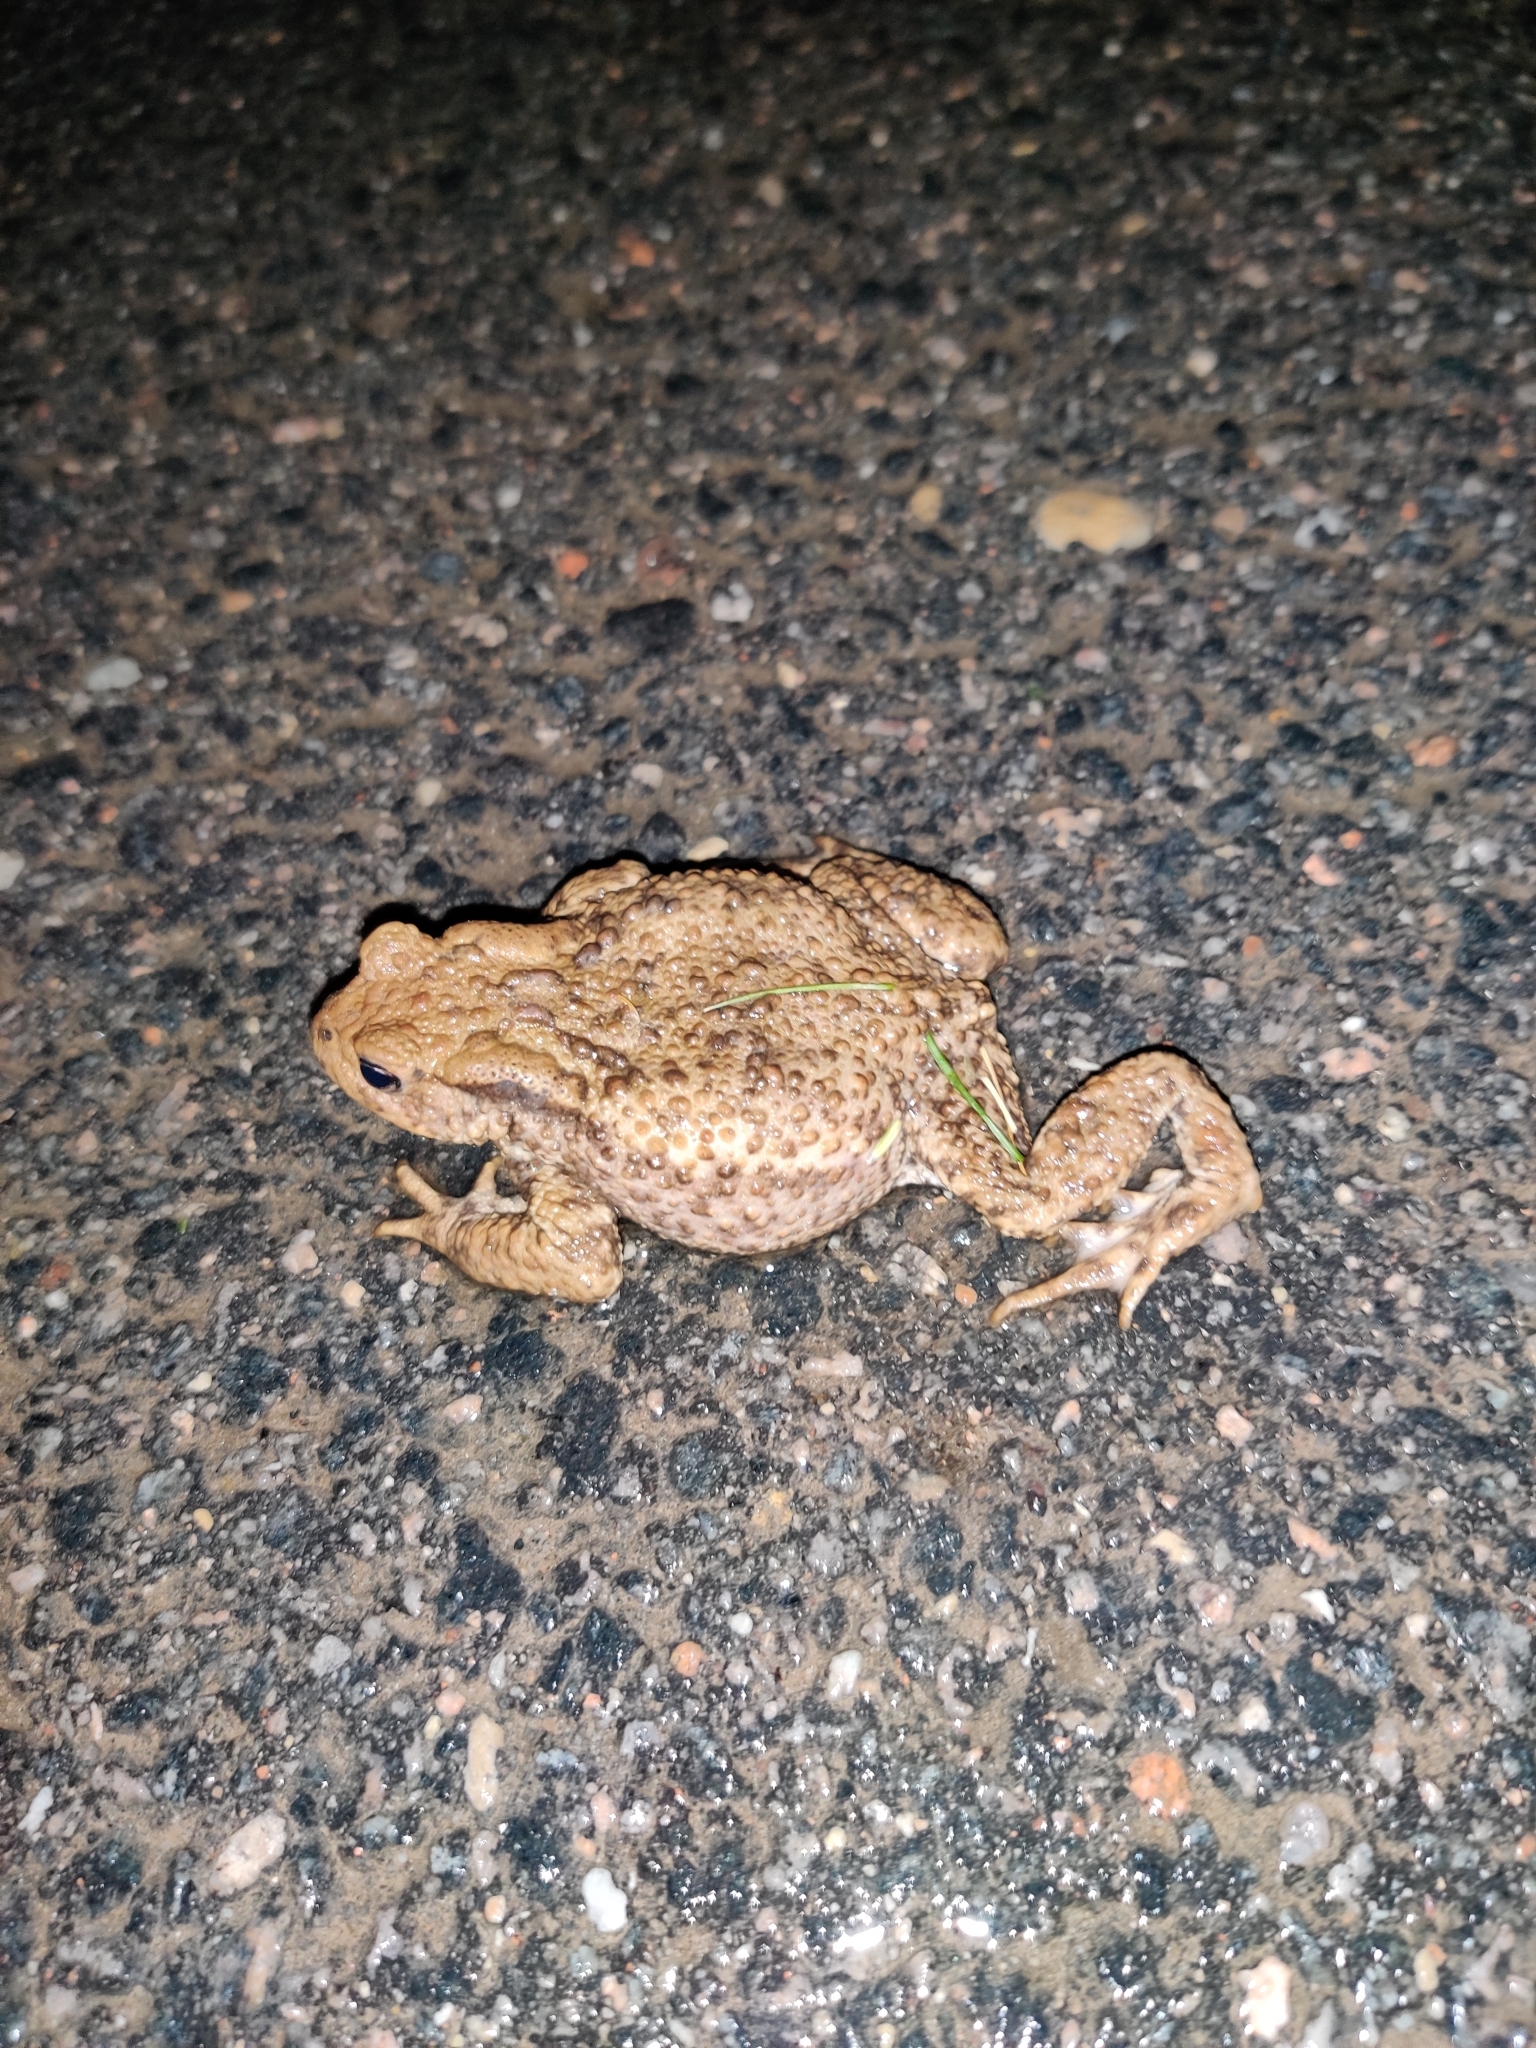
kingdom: Animalia
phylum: Chordata
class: Amphibia
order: Anura
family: Bufonidae
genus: Bufo
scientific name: Bufo bufo
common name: Common toad
